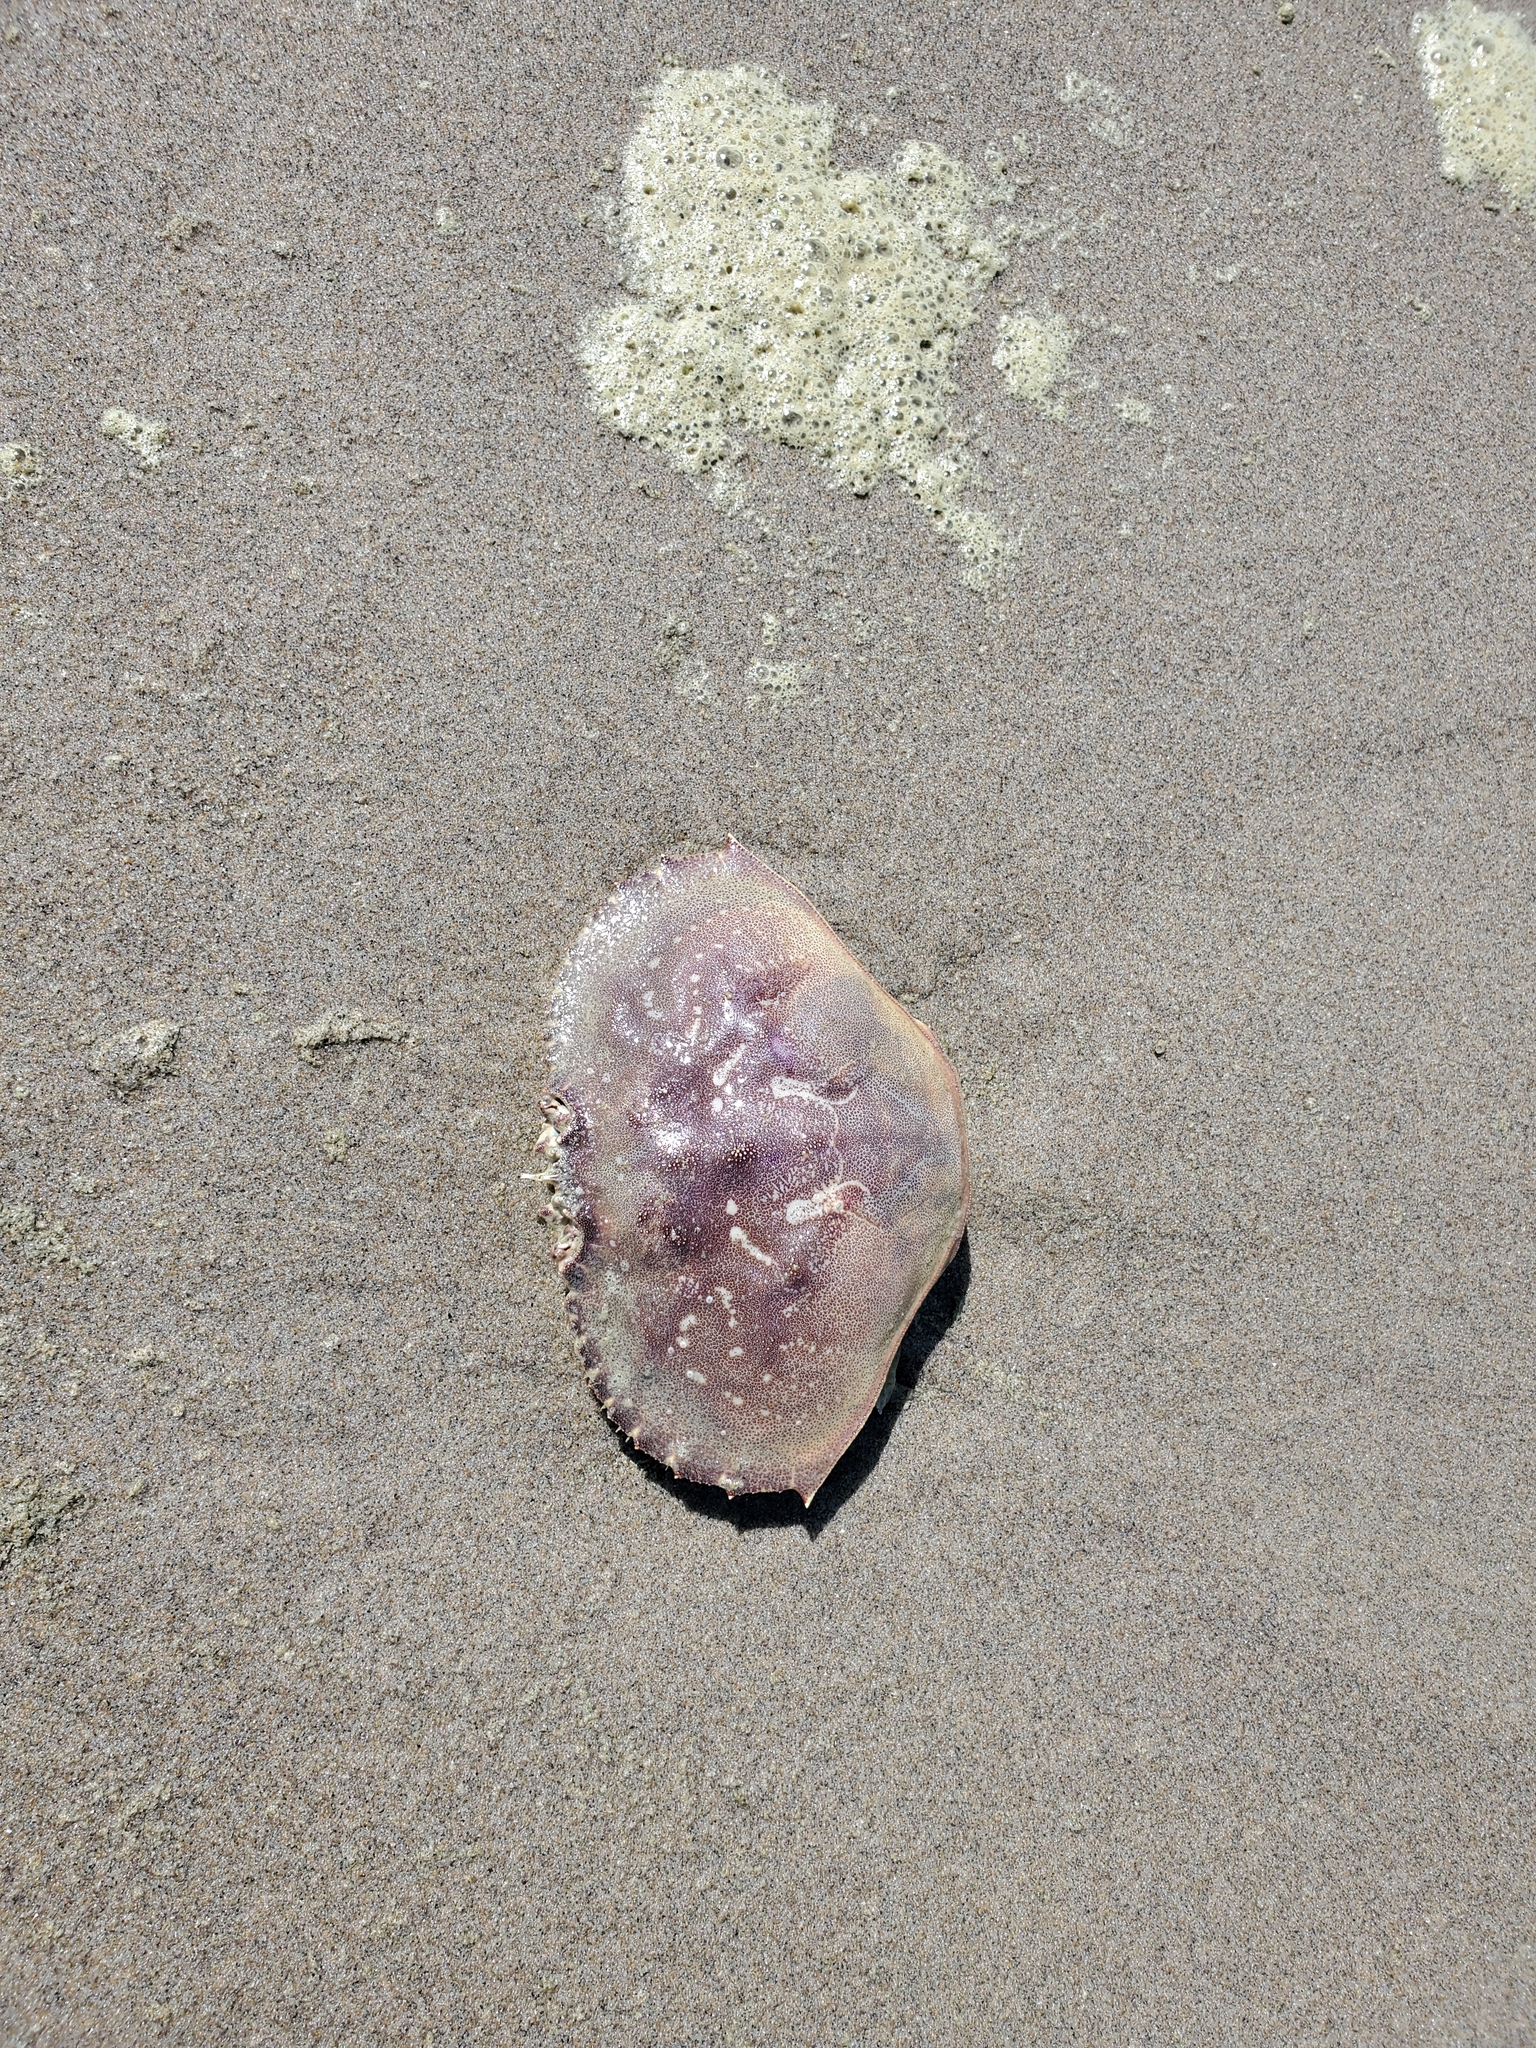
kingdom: Animalia
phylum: Arthropoda
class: Malacostraca
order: Decapoda
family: Cancridae
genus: Metacarcinus
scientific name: Metacarcinus magister
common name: Californian crab
